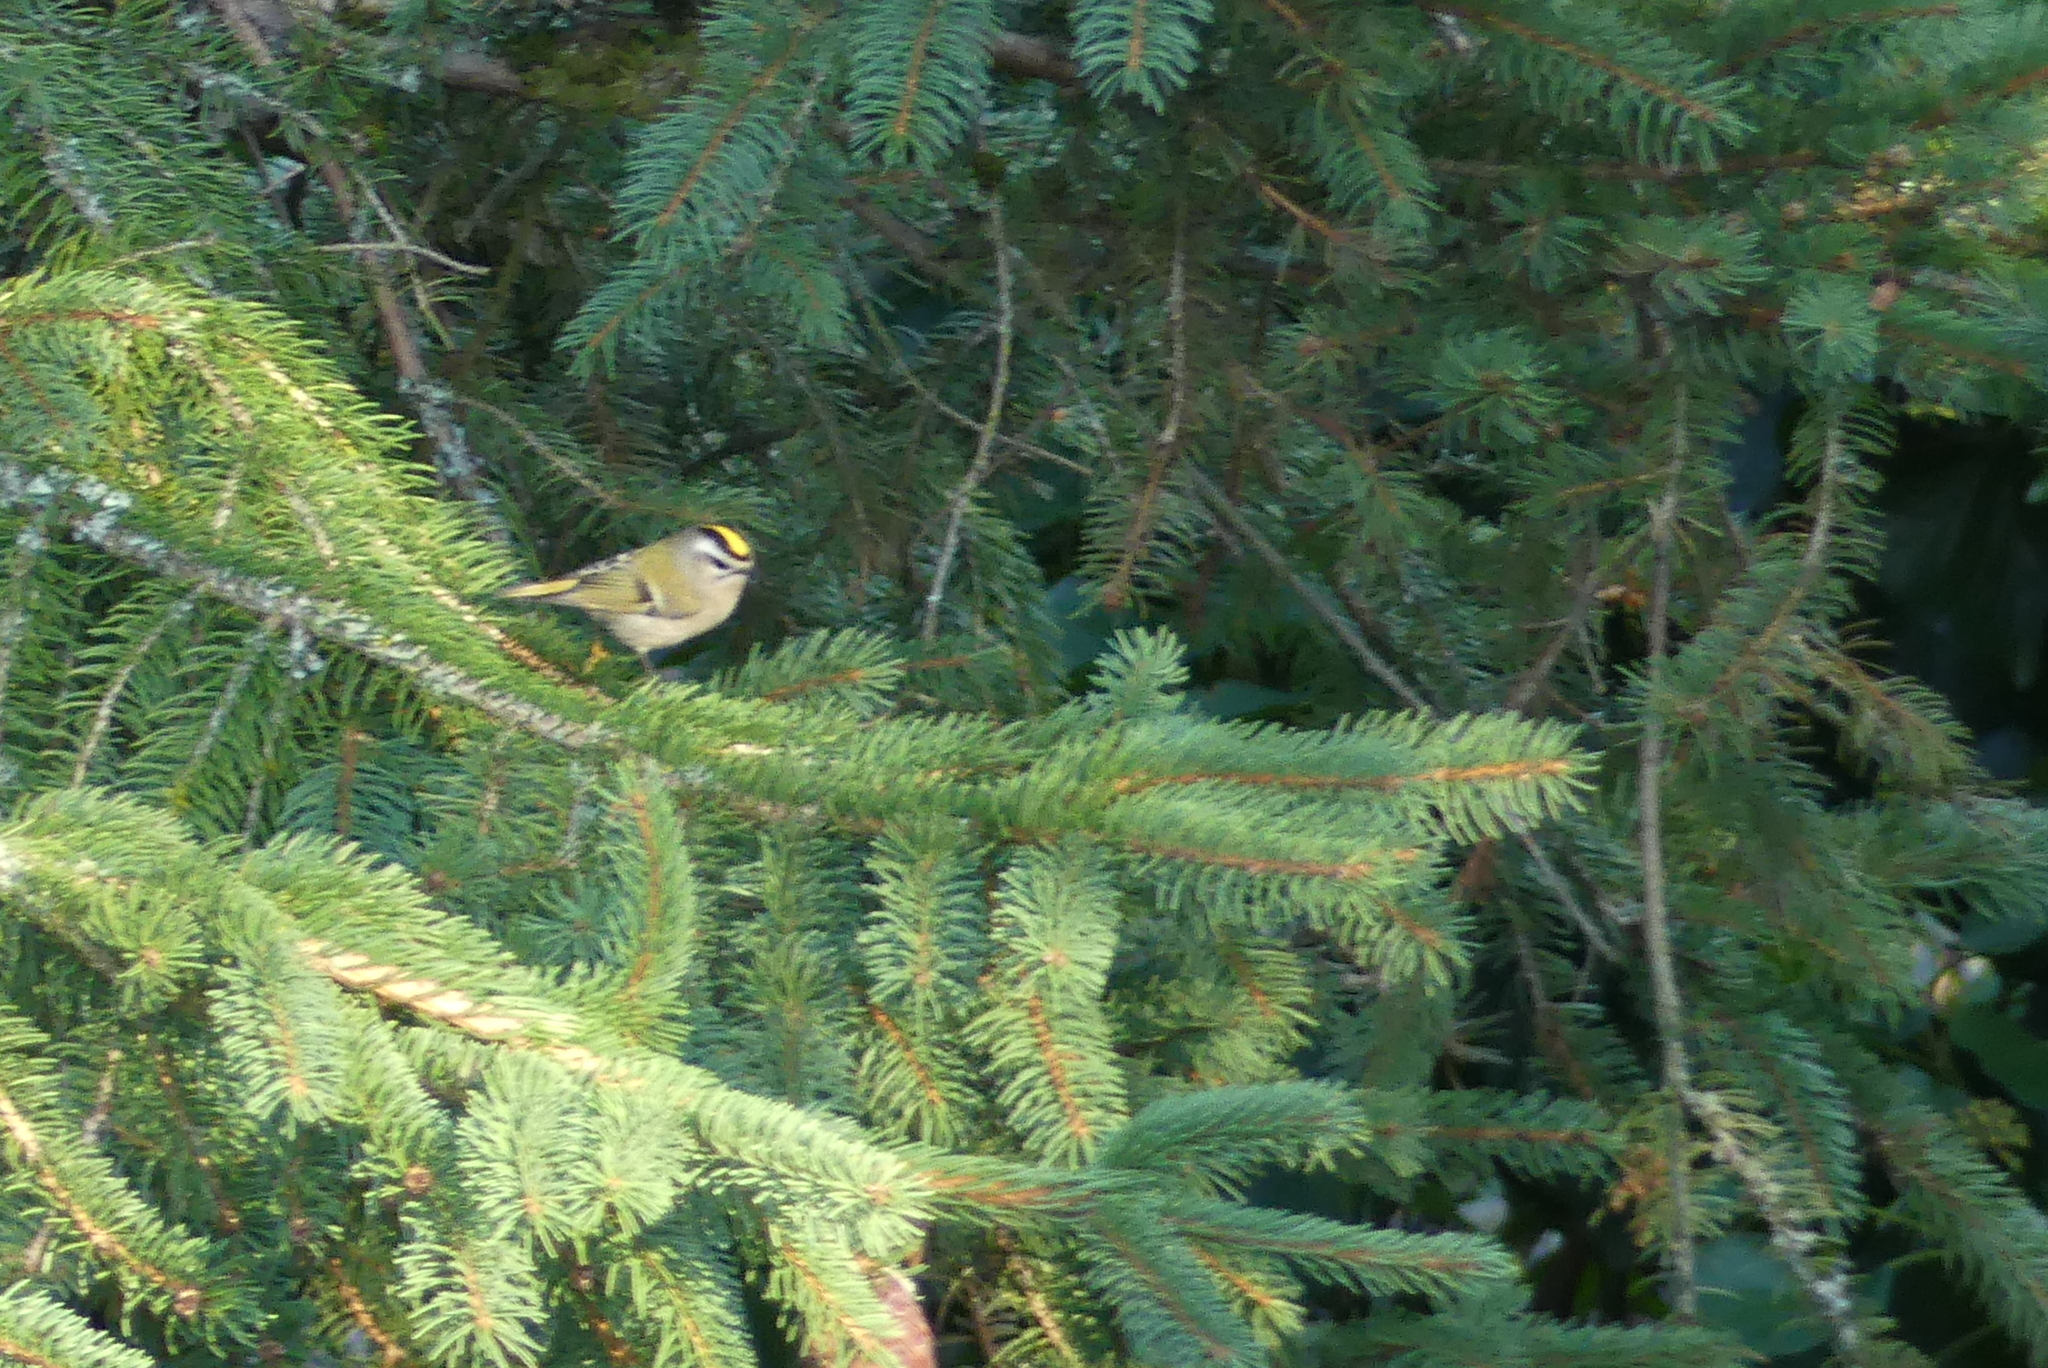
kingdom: Animalia
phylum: Chordata
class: Aves
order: Passeriformes
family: Regulidae
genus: Regulus
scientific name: Regulus satrapa
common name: Golden-crowned kinglet
